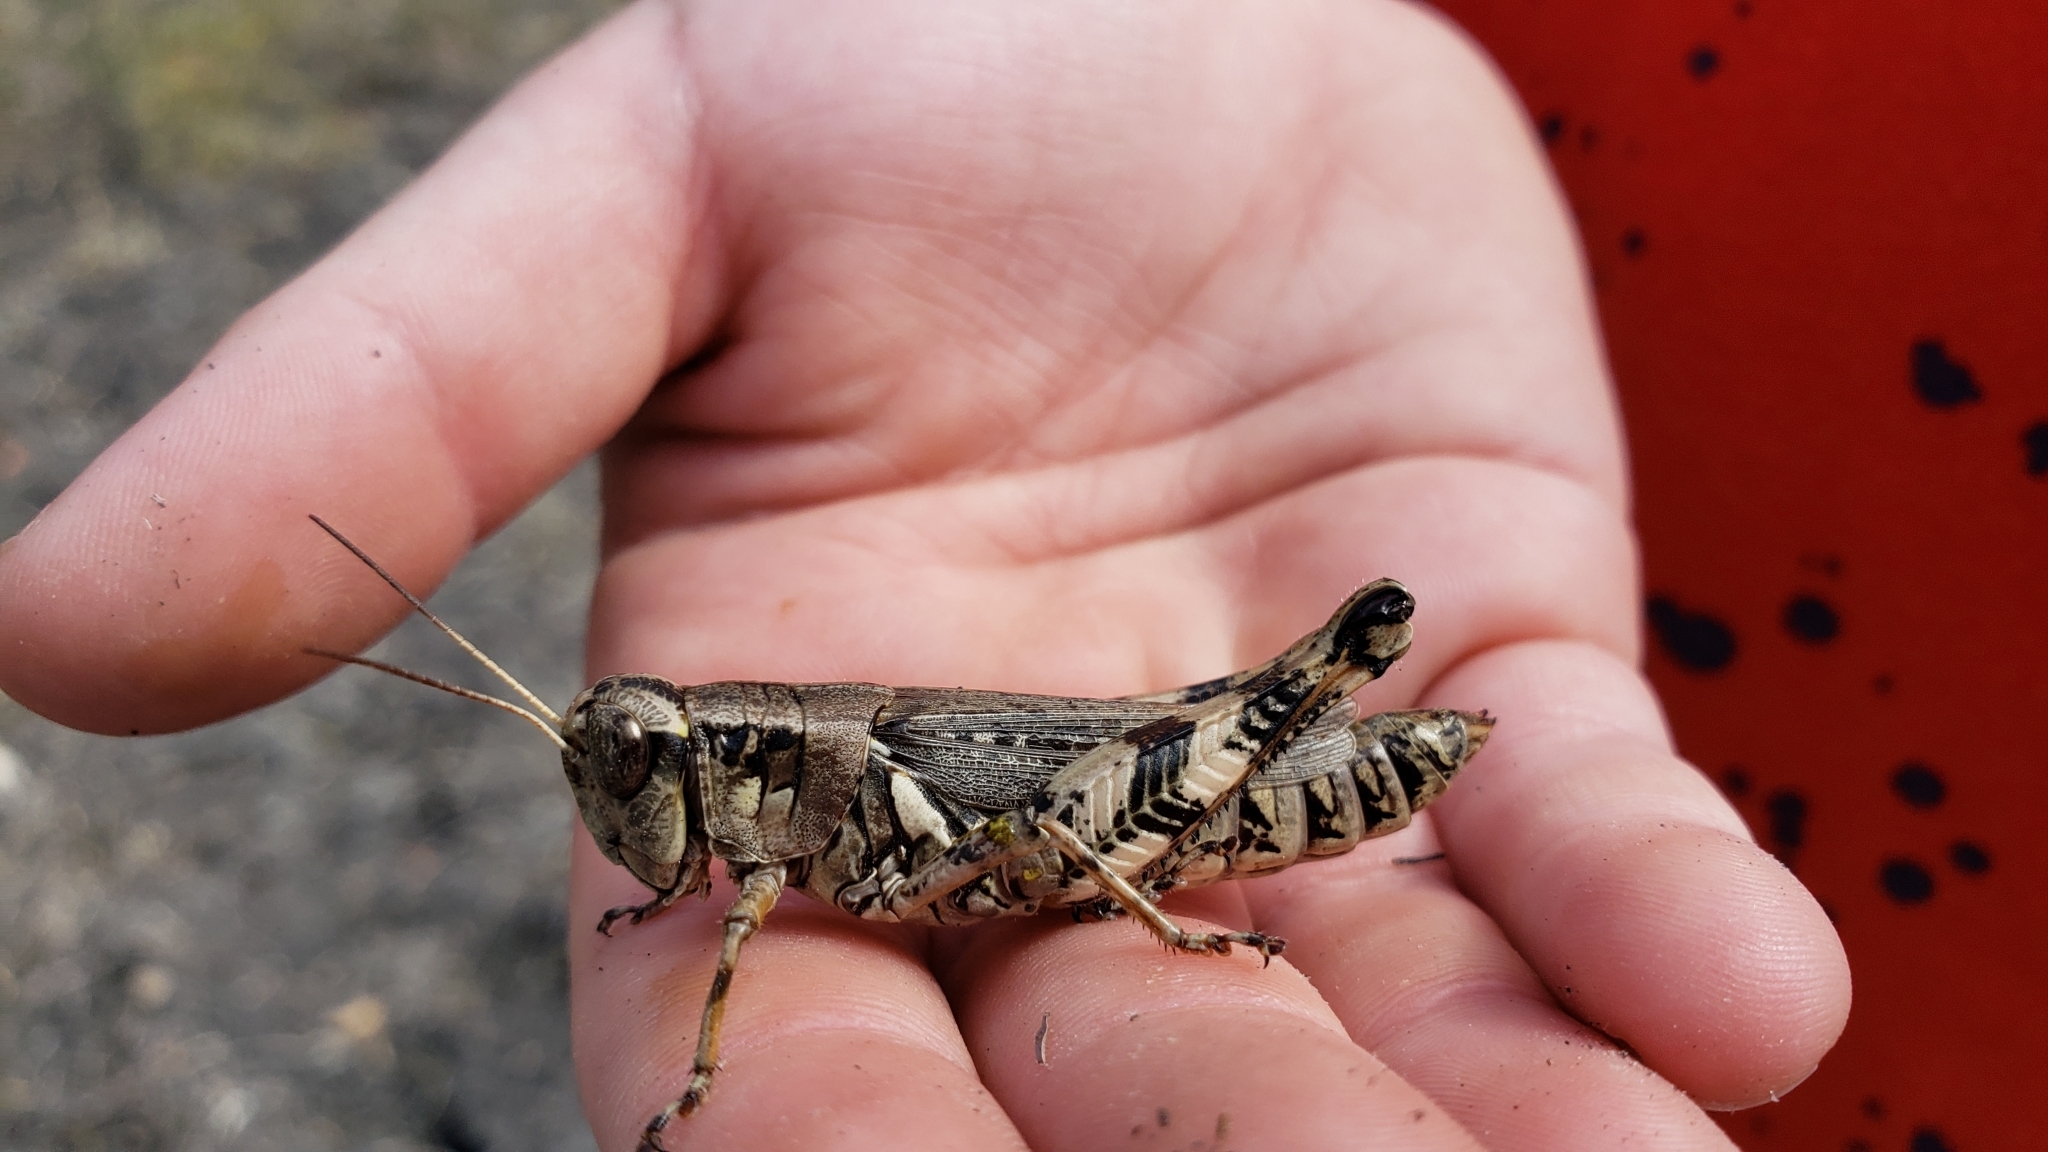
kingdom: Animalia
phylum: Arthropoda
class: Insecta
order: Orthoptera
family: Acrididae
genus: Melanoplus
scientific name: Melanoplus ponderosus
